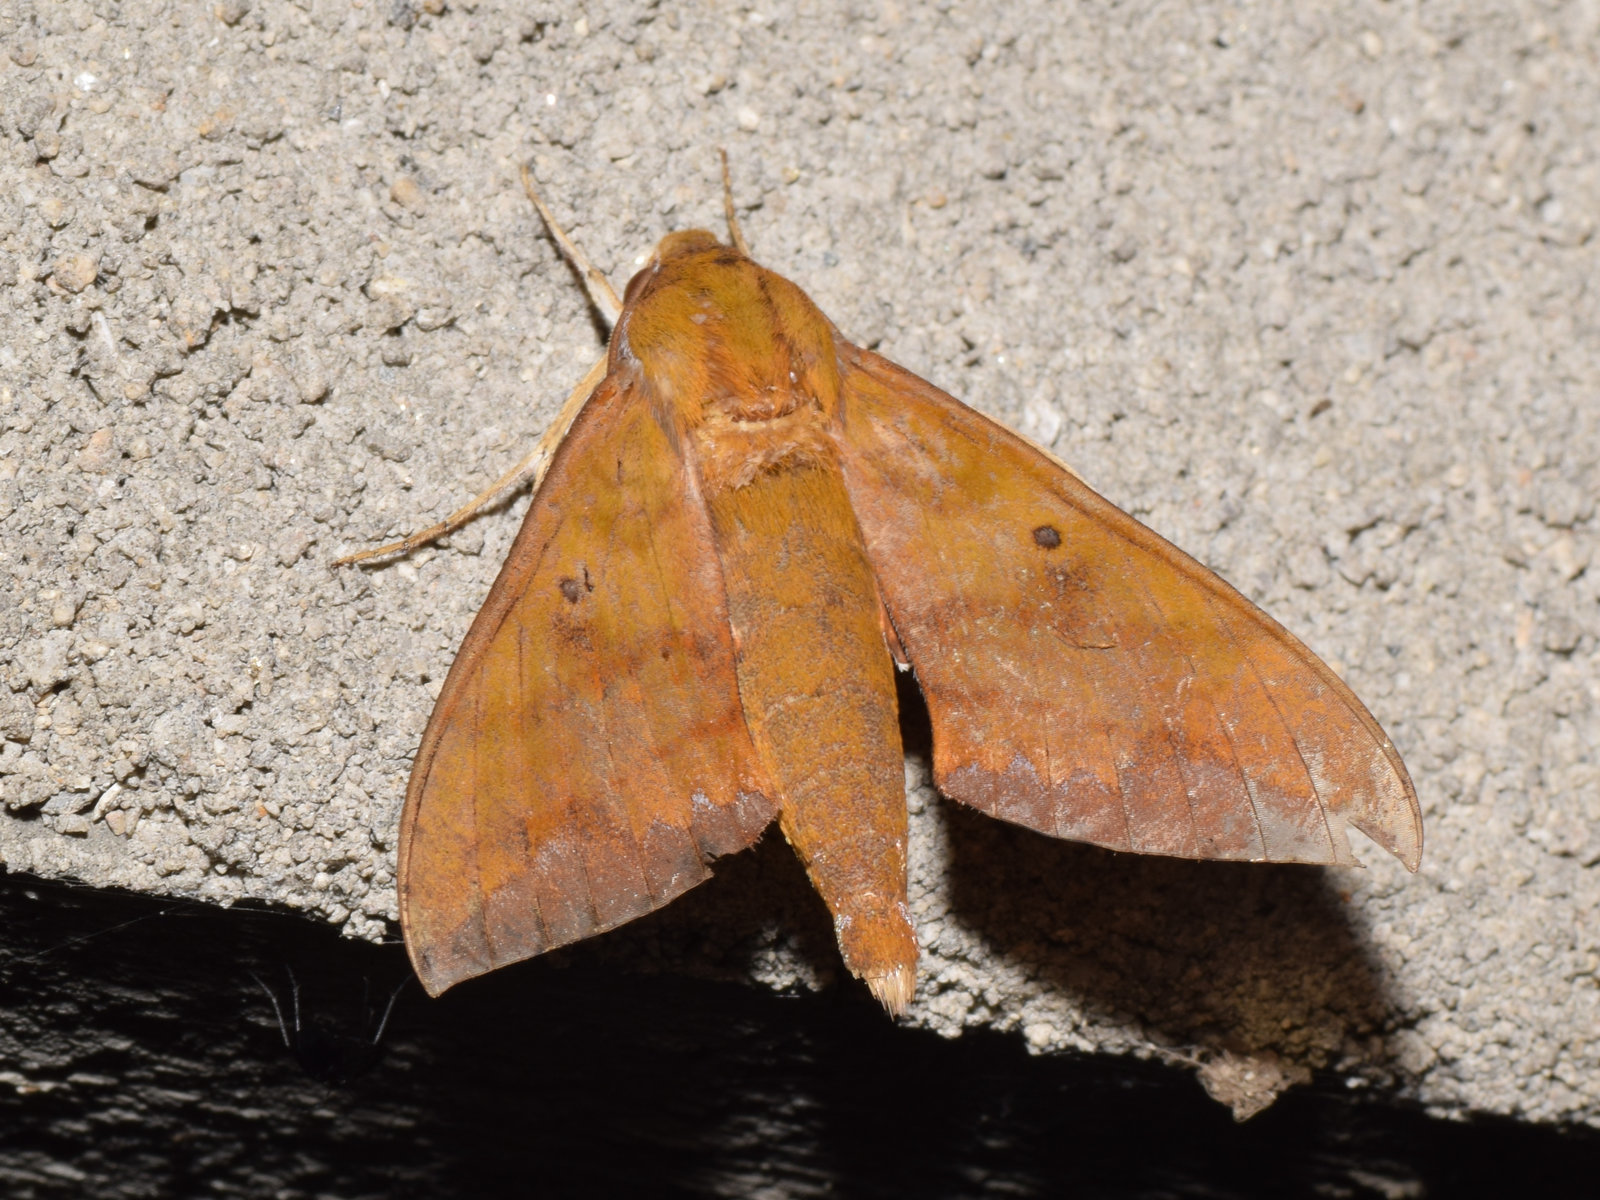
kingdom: Animalia
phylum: Arthropoda
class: Insecta
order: Lepidoptera
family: Sphingidae
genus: Rhagastis
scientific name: Rhagastis olivacea
